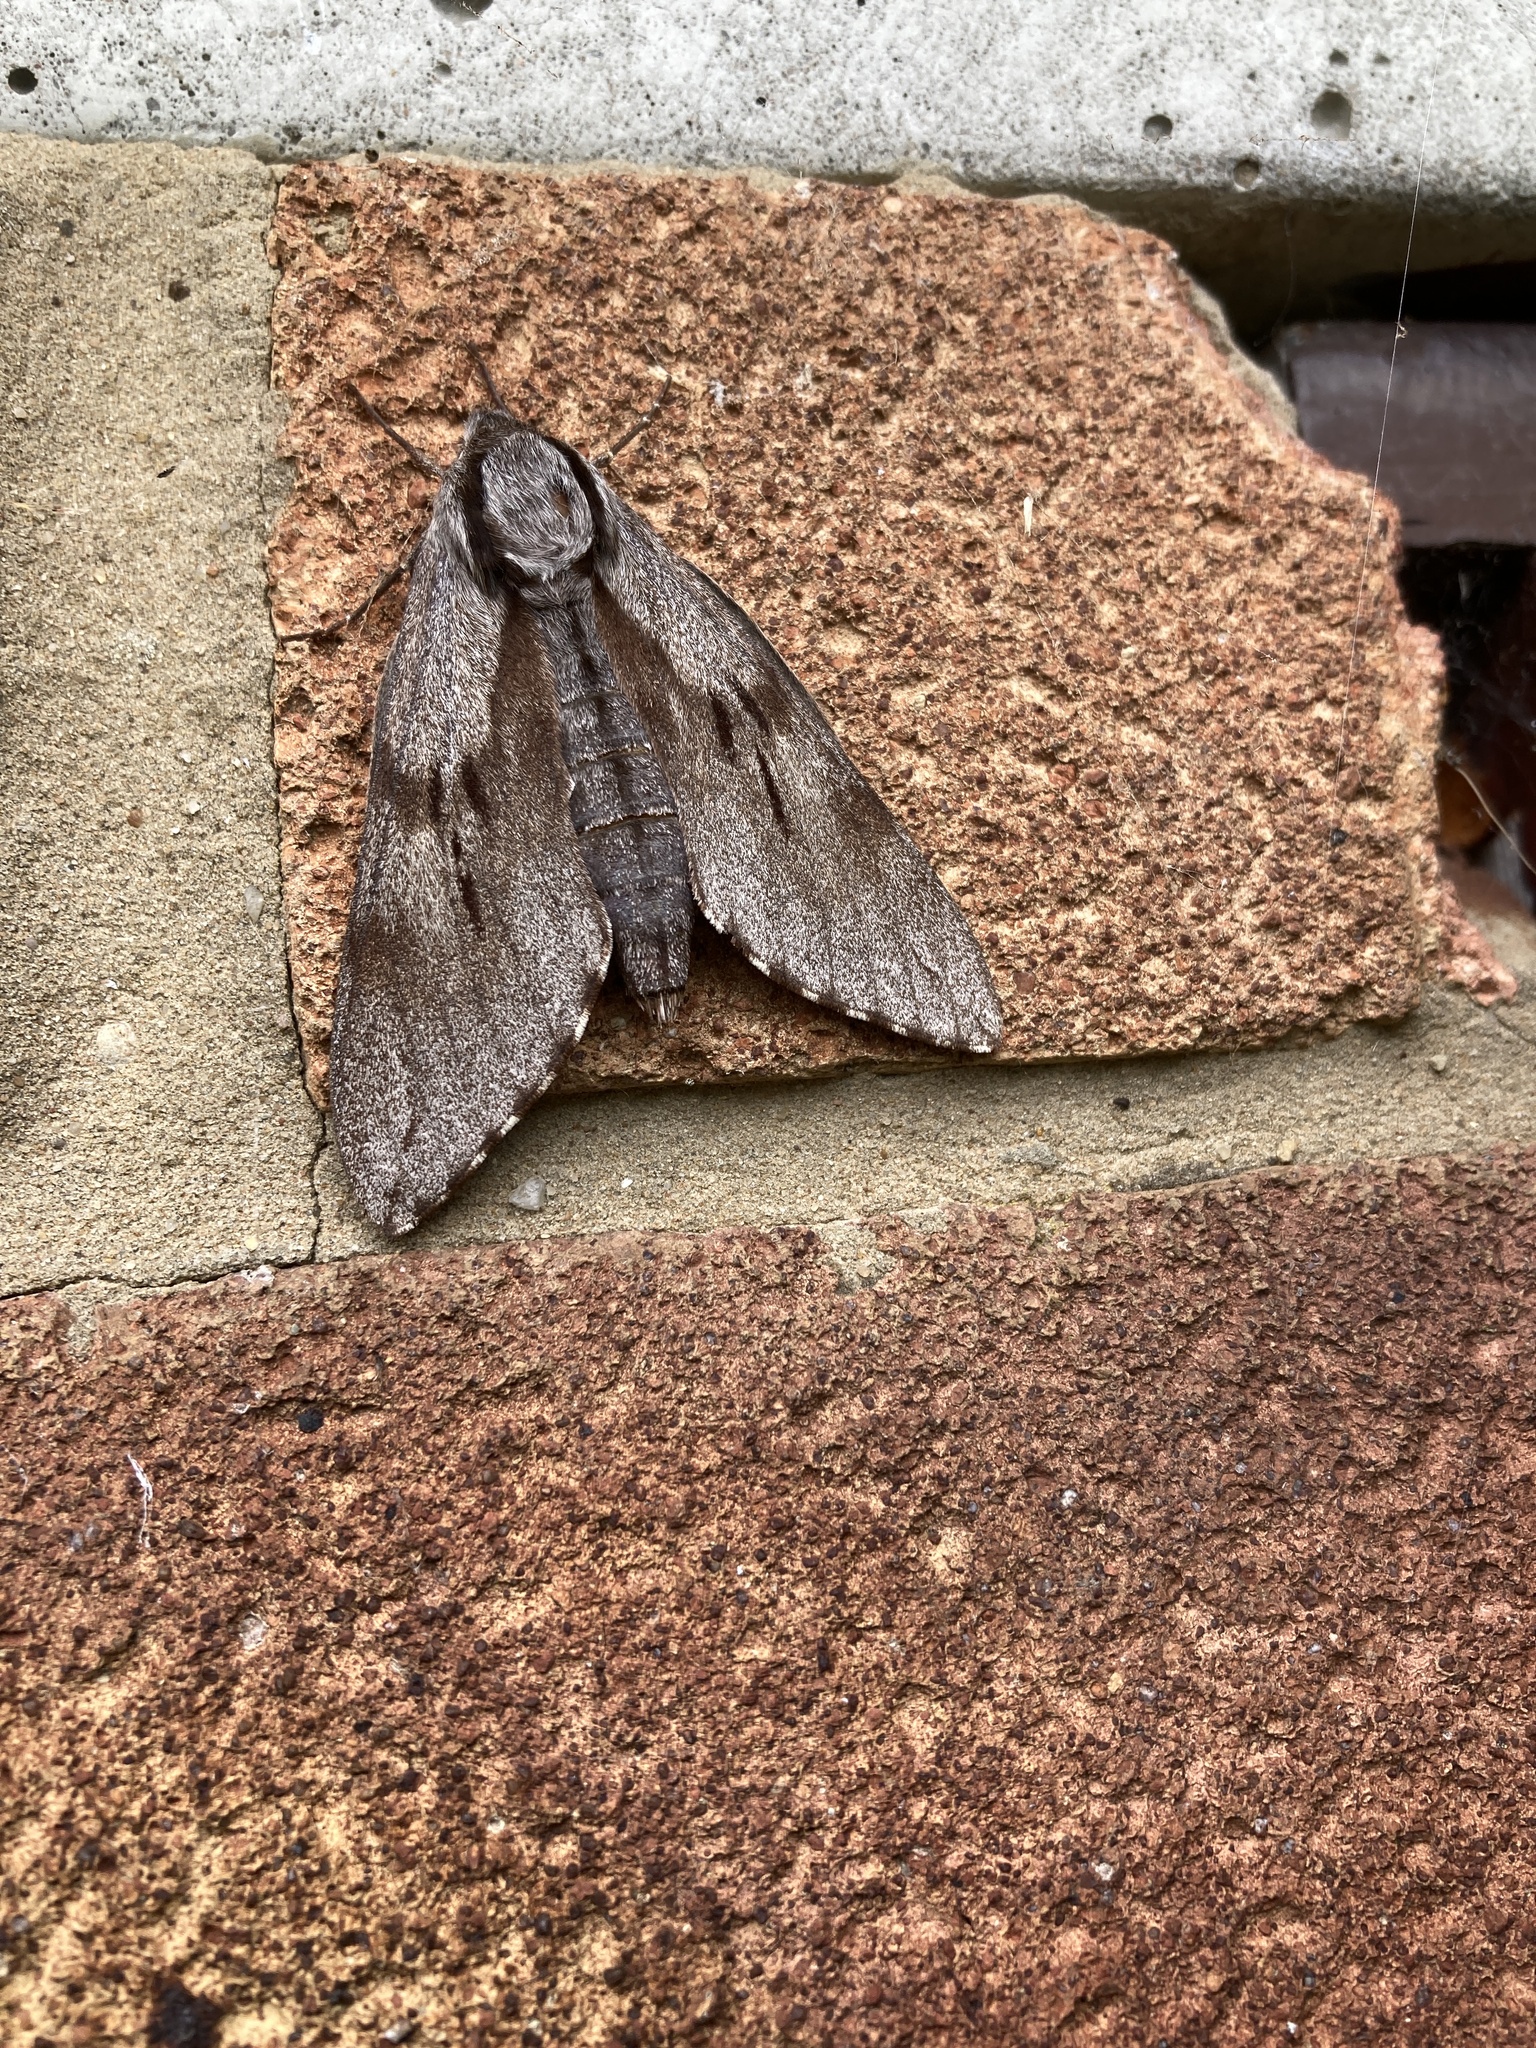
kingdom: Animalia
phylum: Arthropoda
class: Insecta
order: Lepidoptera
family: Sphingidae
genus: Sphinx
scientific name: Sphinx pinastri
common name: Pine hawk-moth
